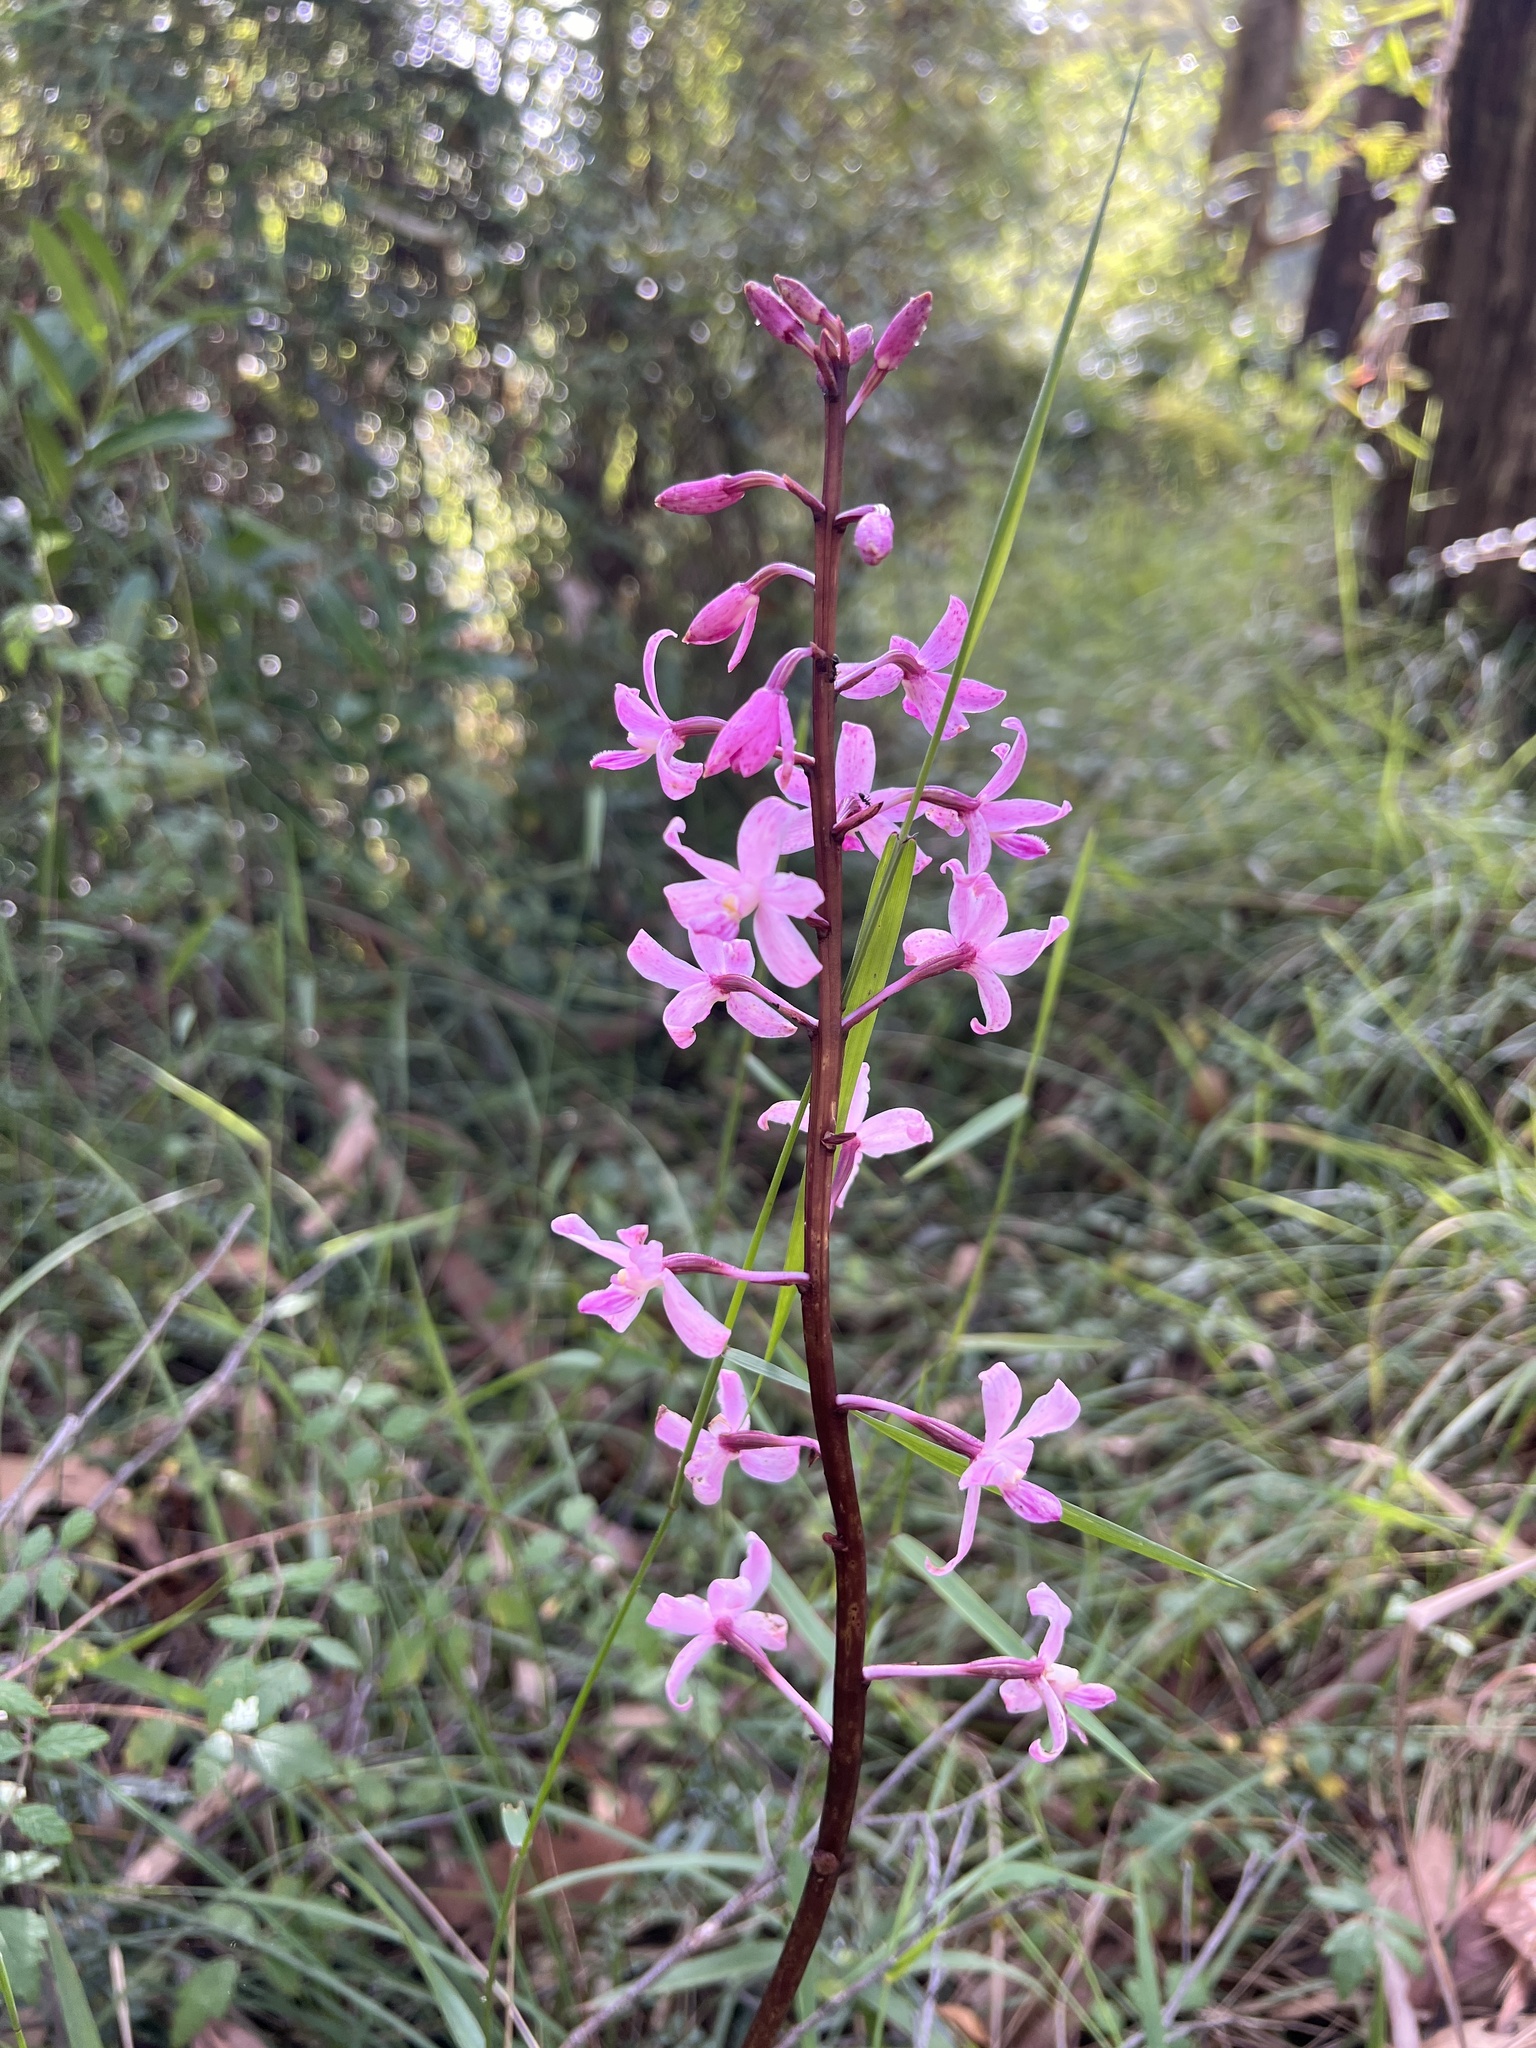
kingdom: Plantae
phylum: Tracheophyta
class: Liliopsida
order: Asparagales
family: Orchidaceae
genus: Dipodium
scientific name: Dipodium roseum
